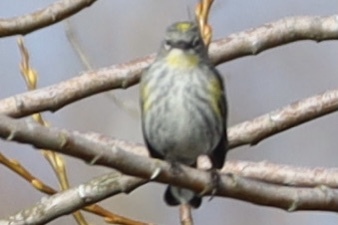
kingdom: Animalia
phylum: Chordata
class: Aves
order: Passeriformes
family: Parulidae
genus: Setophaga
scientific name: Setophaga auduboni
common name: Audubon's warbler
